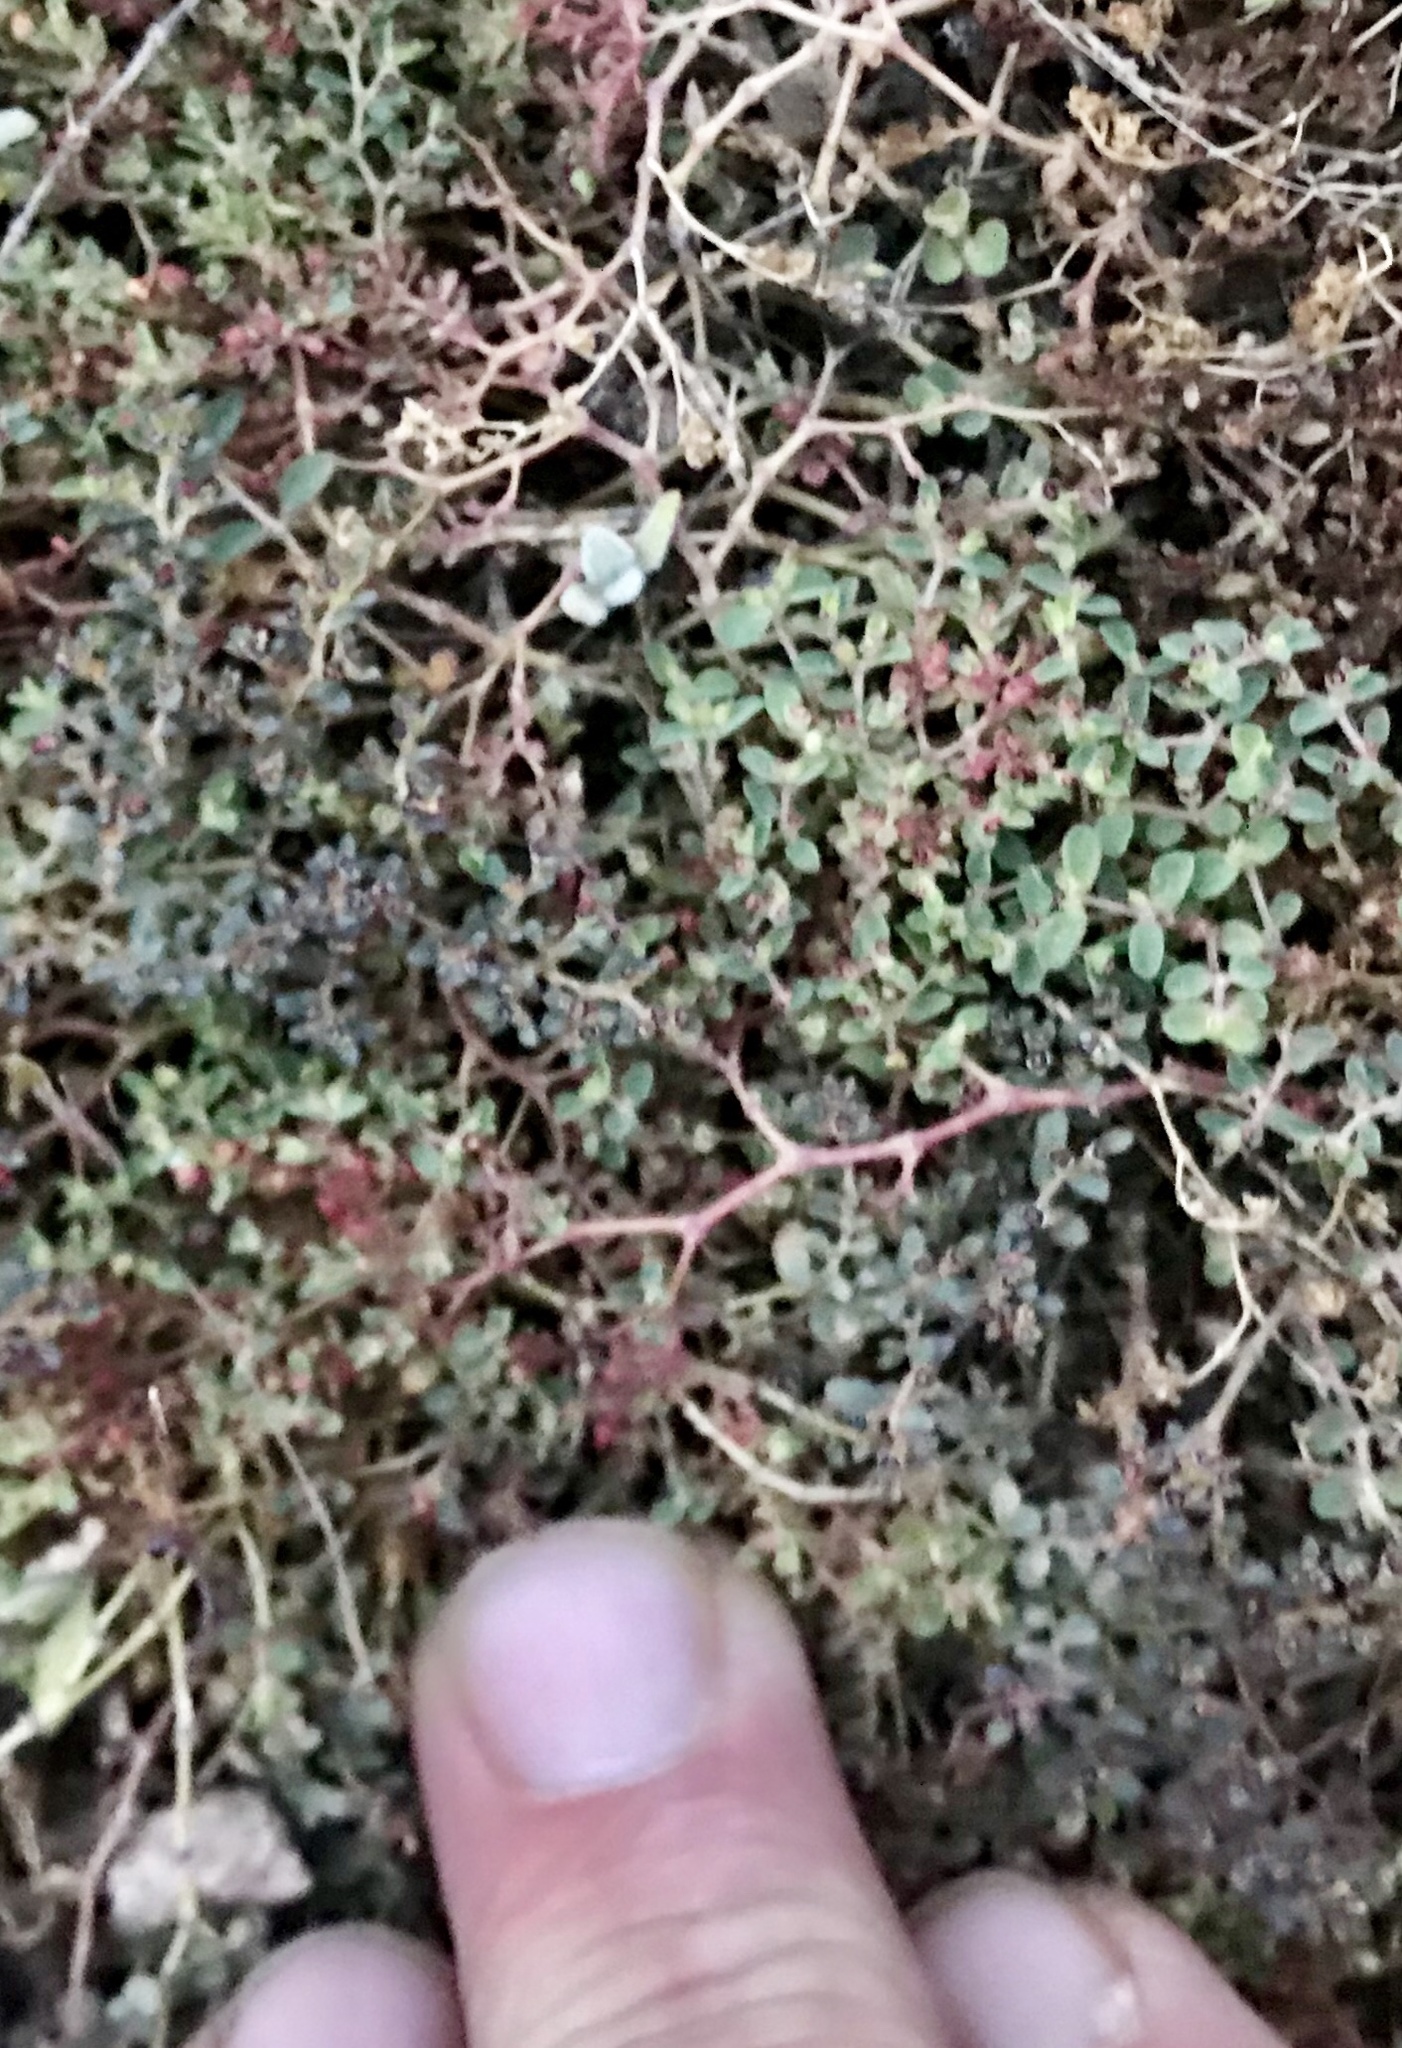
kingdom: Plantae
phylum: Tracheophyta
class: Magnoliopsida
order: Malpighiales
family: Euphorbiaceae
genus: Euphorbia
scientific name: Euphorbia polycarpa
